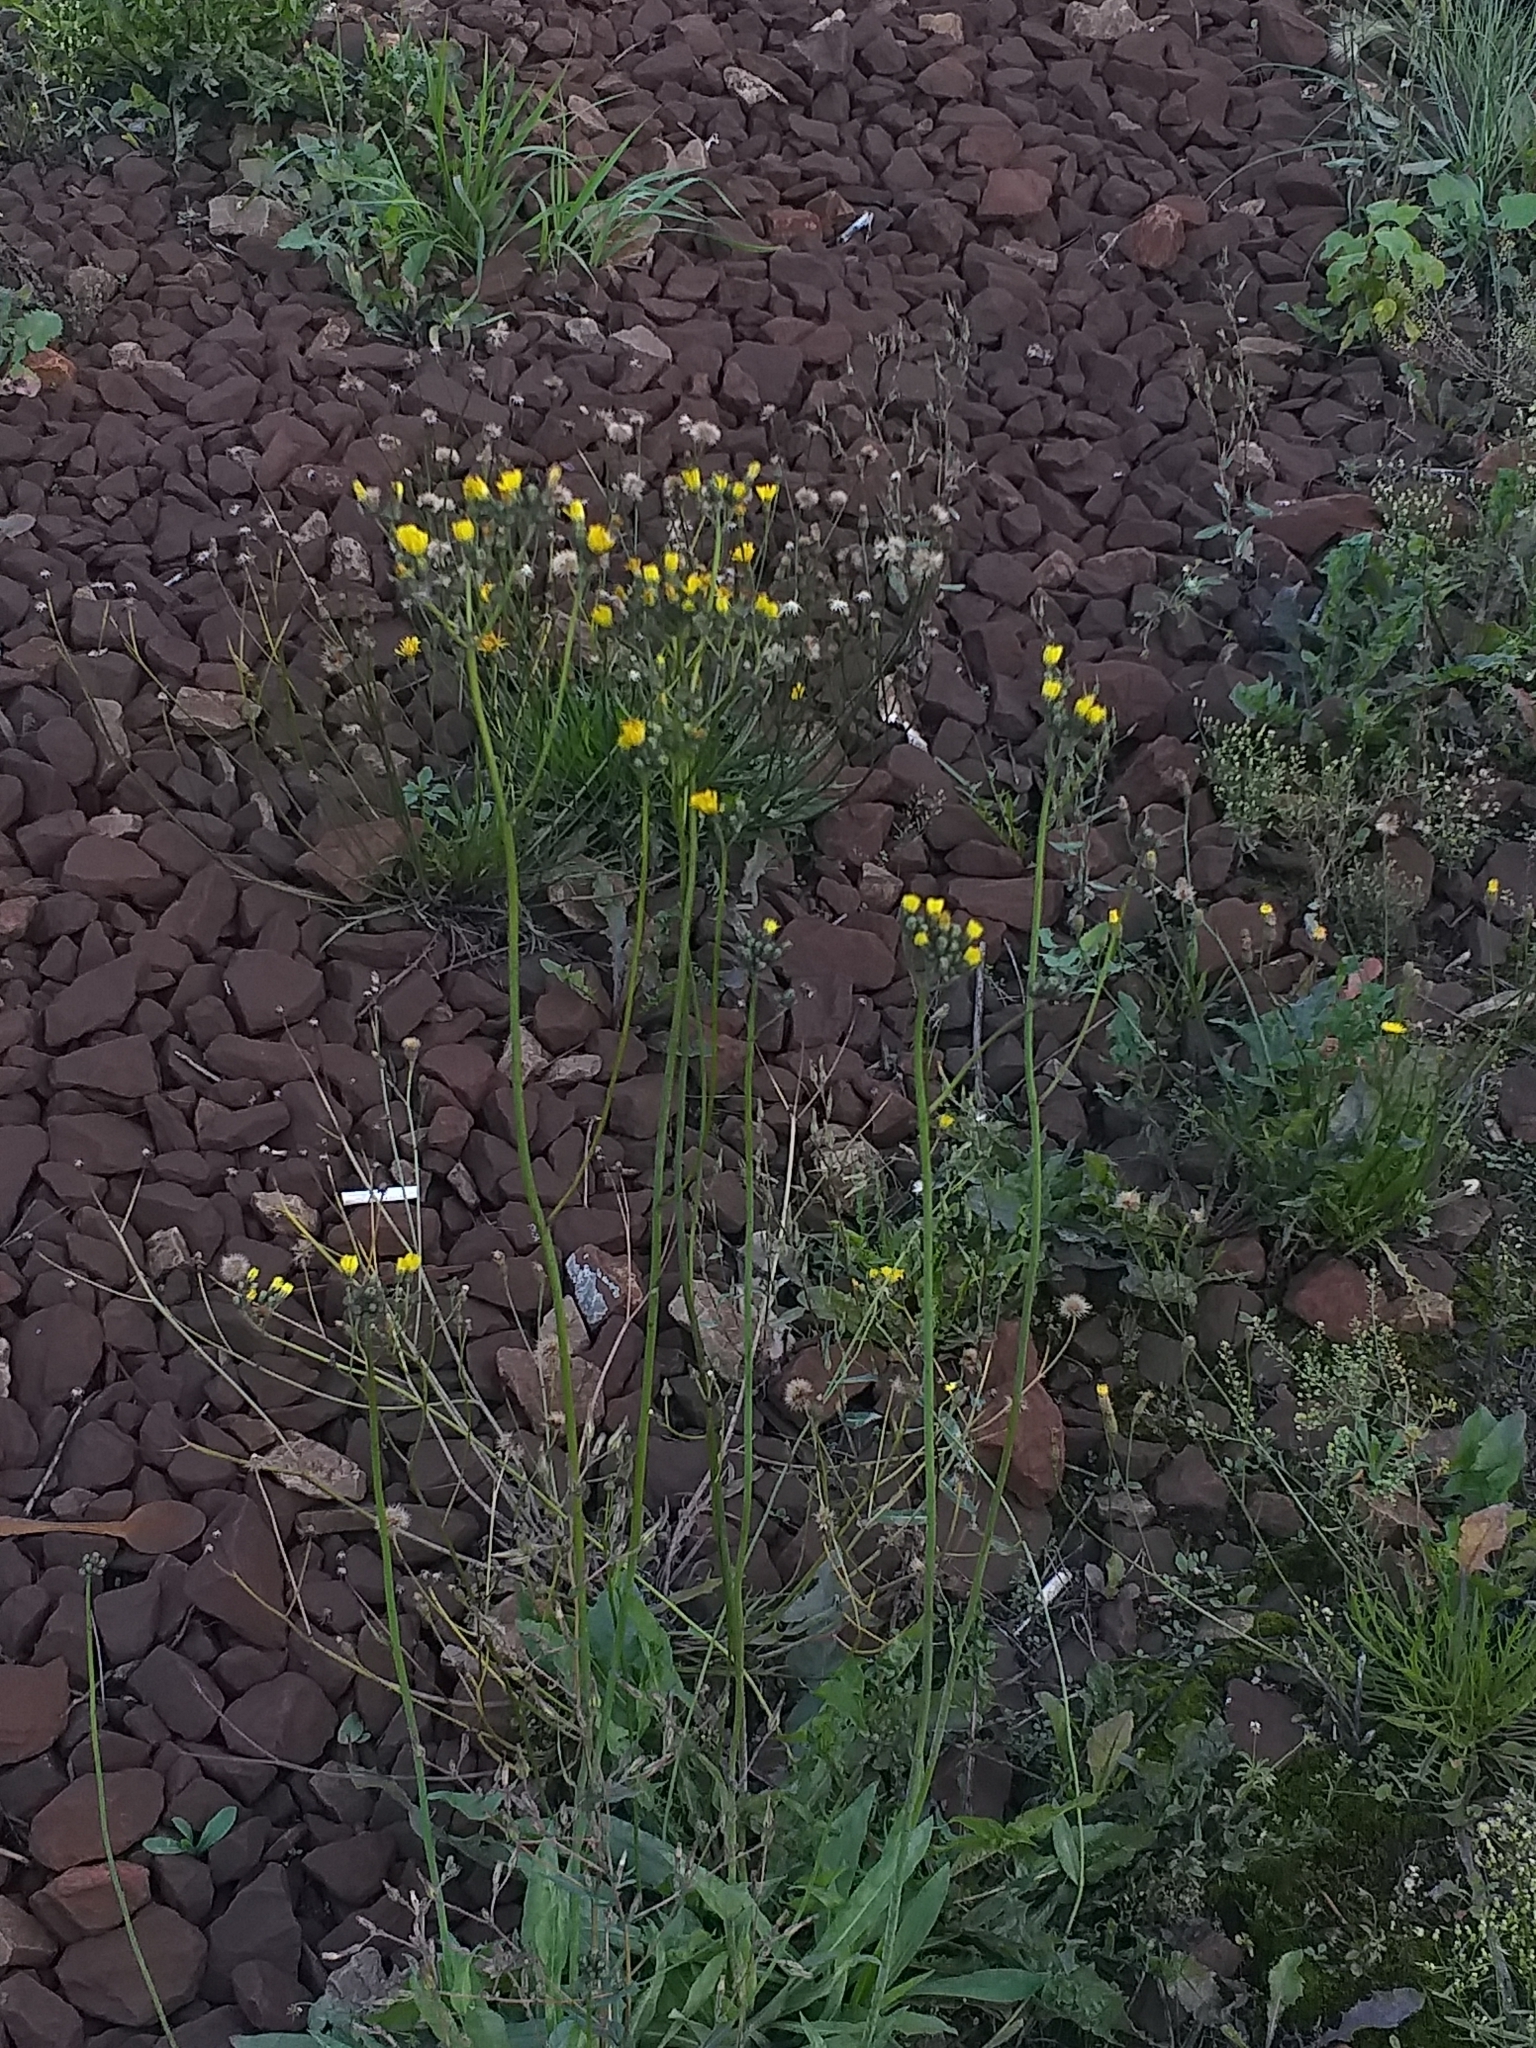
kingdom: Plantae
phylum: Tracheophyta
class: Magnoliopsida
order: Asterales
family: Asteraceae
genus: Pilosella
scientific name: Pilosella
